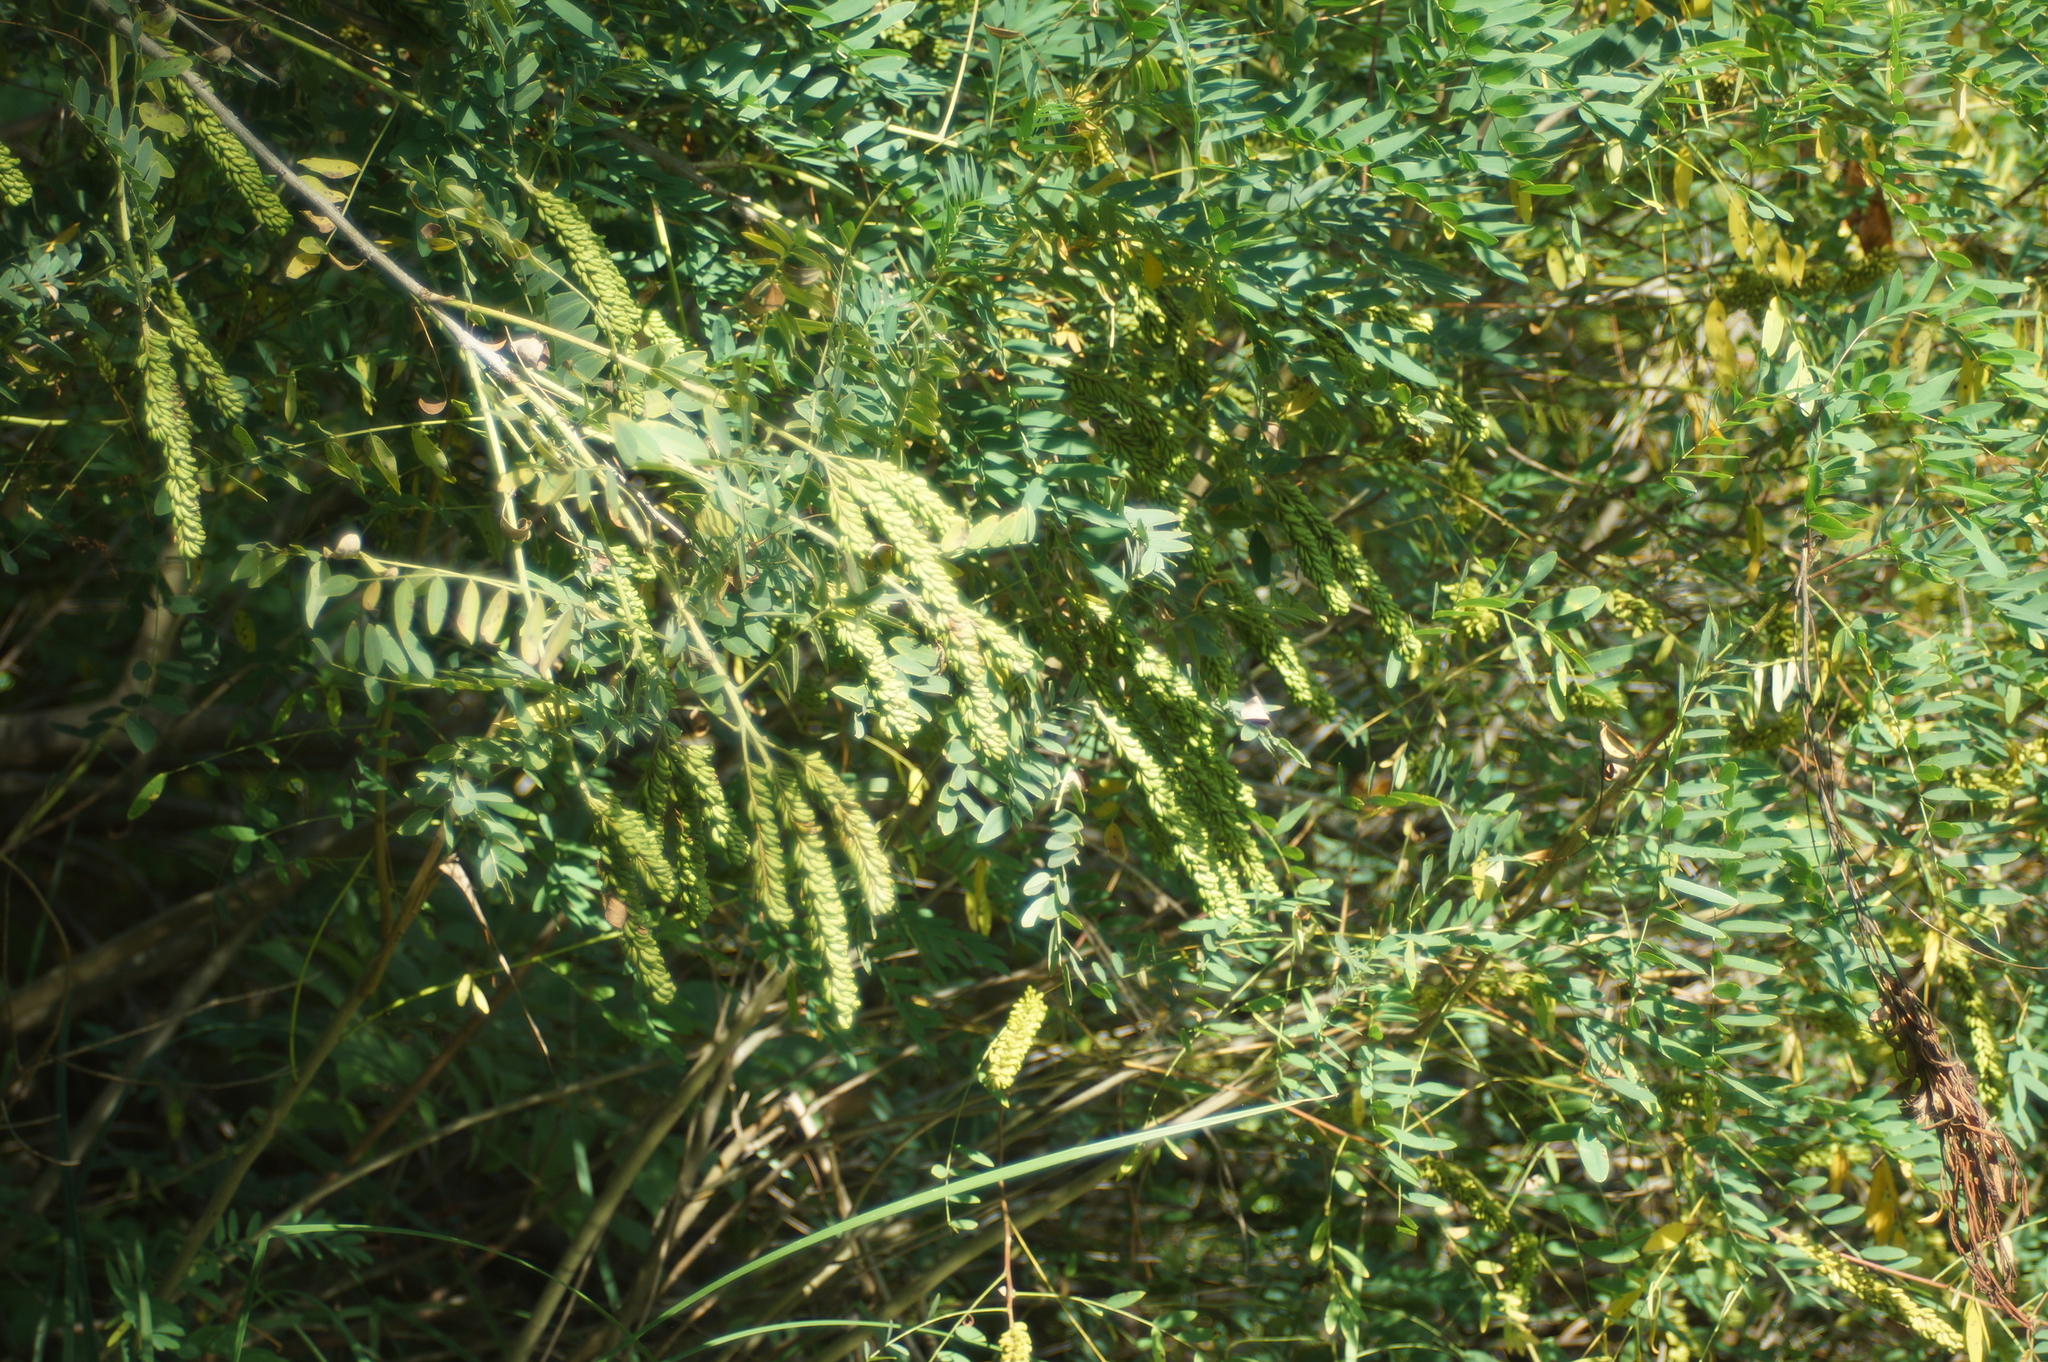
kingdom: Plantae
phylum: Tracheophyta
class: Magnoliopsida
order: Fabales
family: Fabaceae
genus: Amorpha
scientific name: Amorpha fruticosa
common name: False indigo
